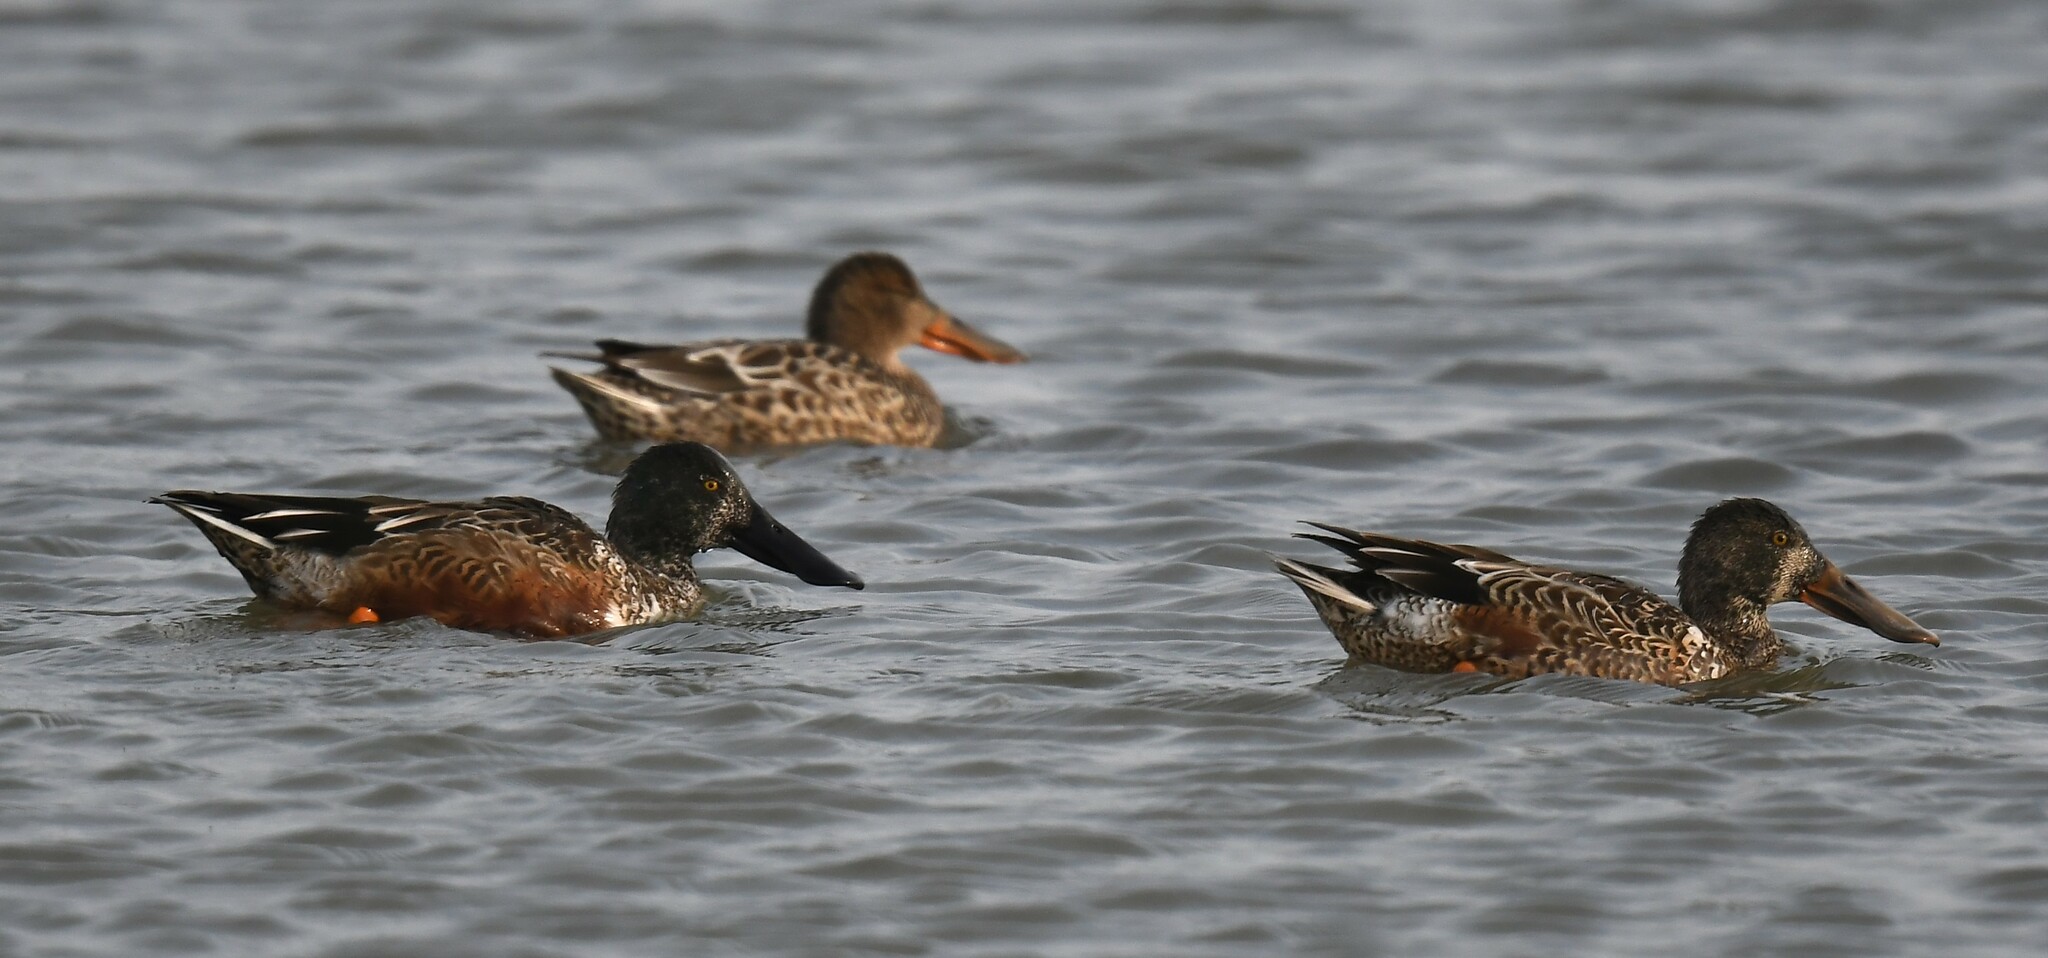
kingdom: Animalia
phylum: Chordata
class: Aves
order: Anseriformes
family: Anatidae
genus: Spatula
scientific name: Spatula clypeata
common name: Northern shoveler
